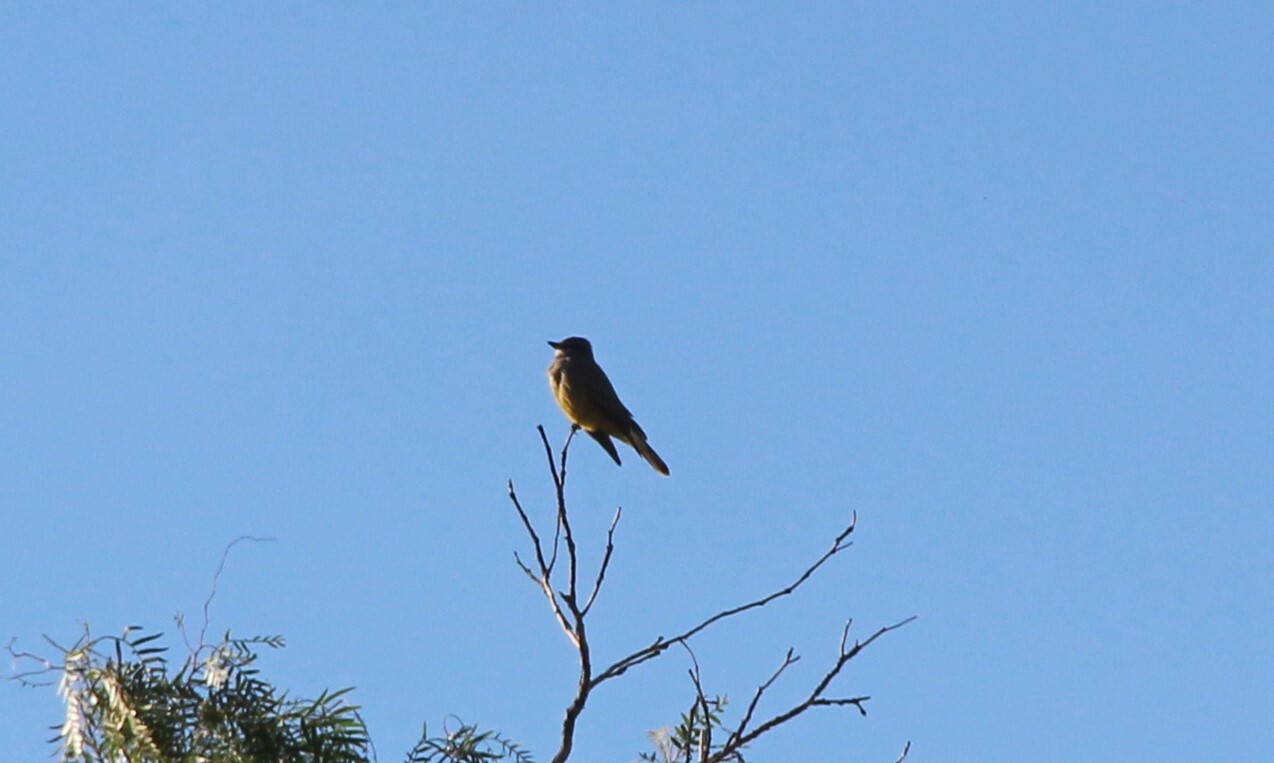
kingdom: Animalia
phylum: Chordata
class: Aves
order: Passeriformes
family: Tyrannidae
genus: Tyrannus
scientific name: Tyrannus vociferans
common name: Cassin's kingbird
